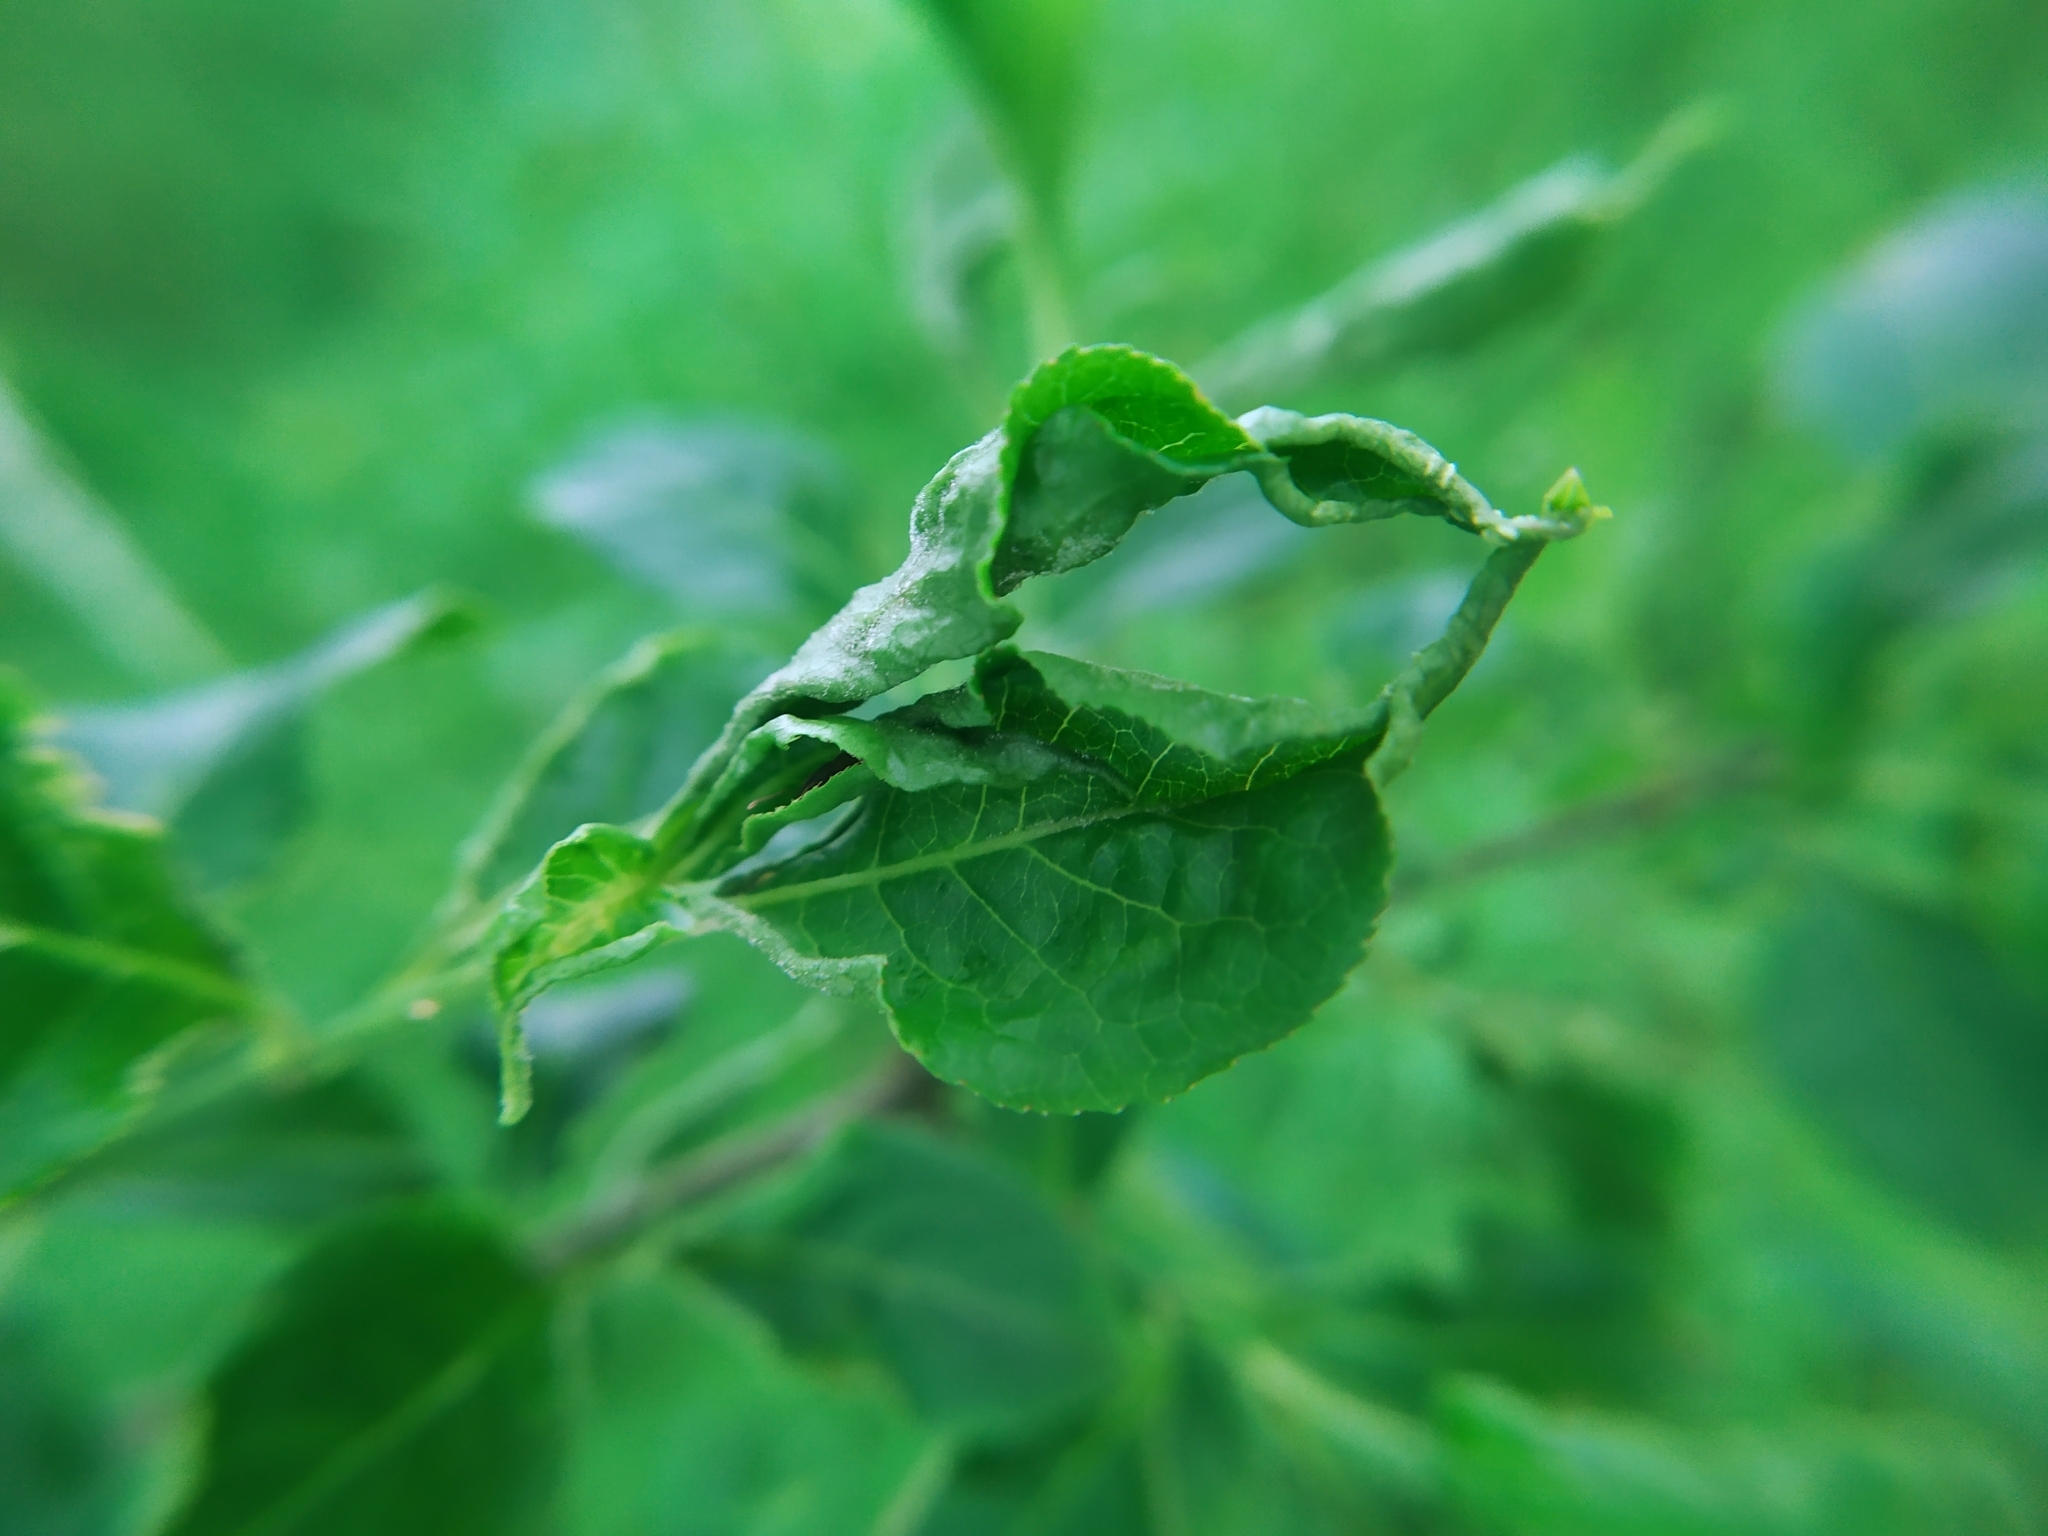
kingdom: Animalia
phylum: Arthropoda
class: Arachnida
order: Trombidiformes
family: Eriophyidae
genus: Stenacis
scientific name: Stenacis evonymi
